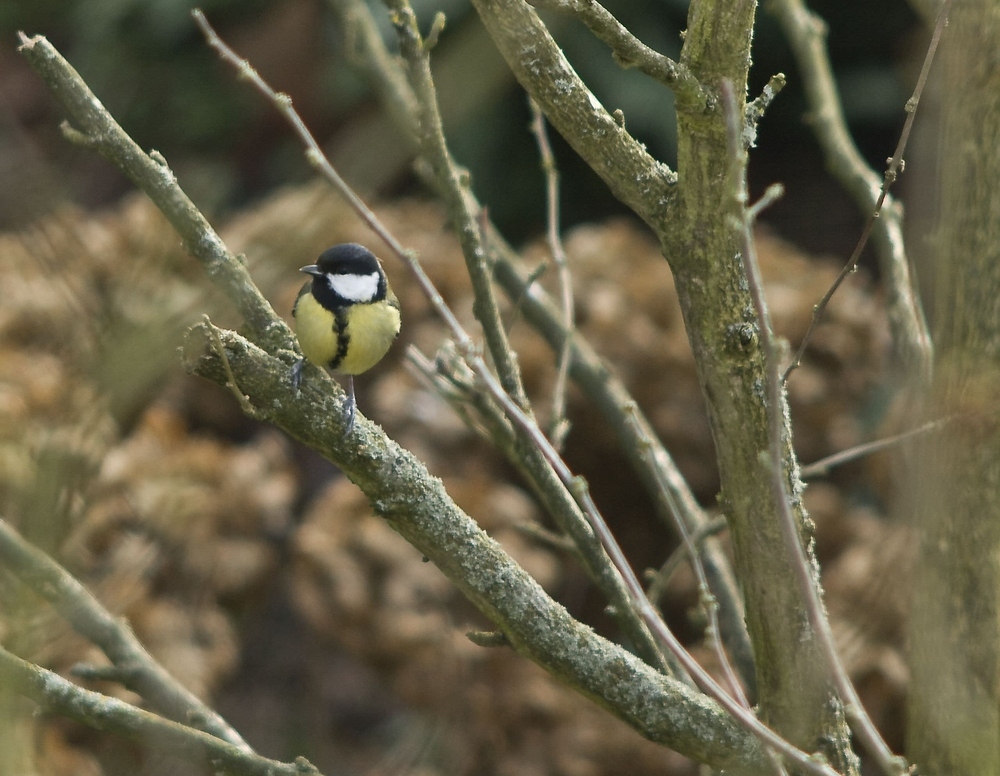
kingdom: Animalia
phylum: Chordata
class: Aves
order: Passeriformes
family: Paridae
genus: Parus
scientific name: Parus major
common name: Great tit
